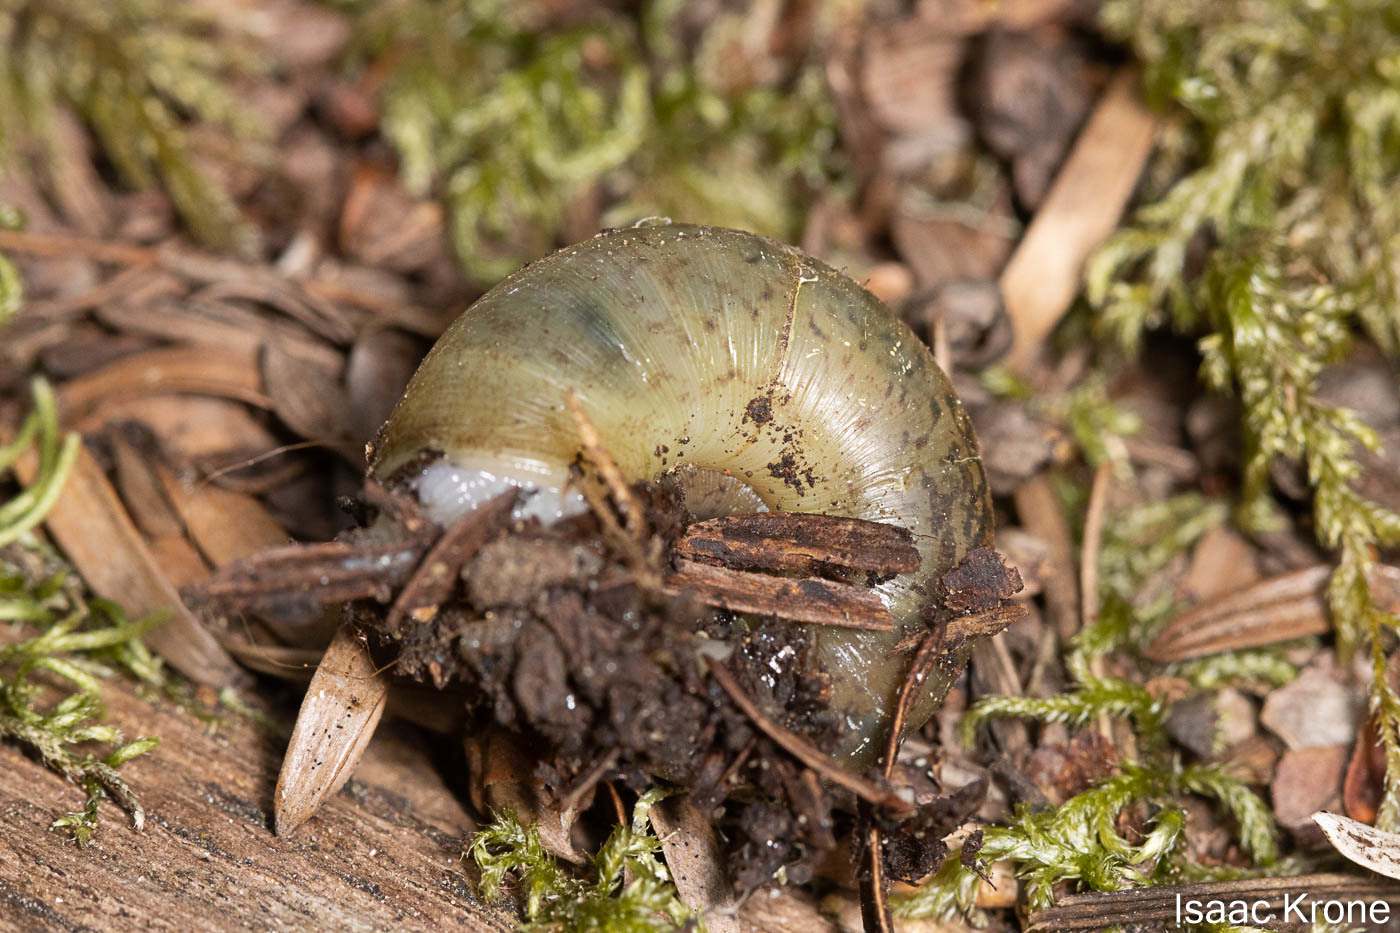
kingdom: Animalia
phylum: Mollusca
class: Gastropoda
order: Stylommatophora
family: Haplotrematidae
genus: Haplotrema
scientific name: Haplotrema minimum
